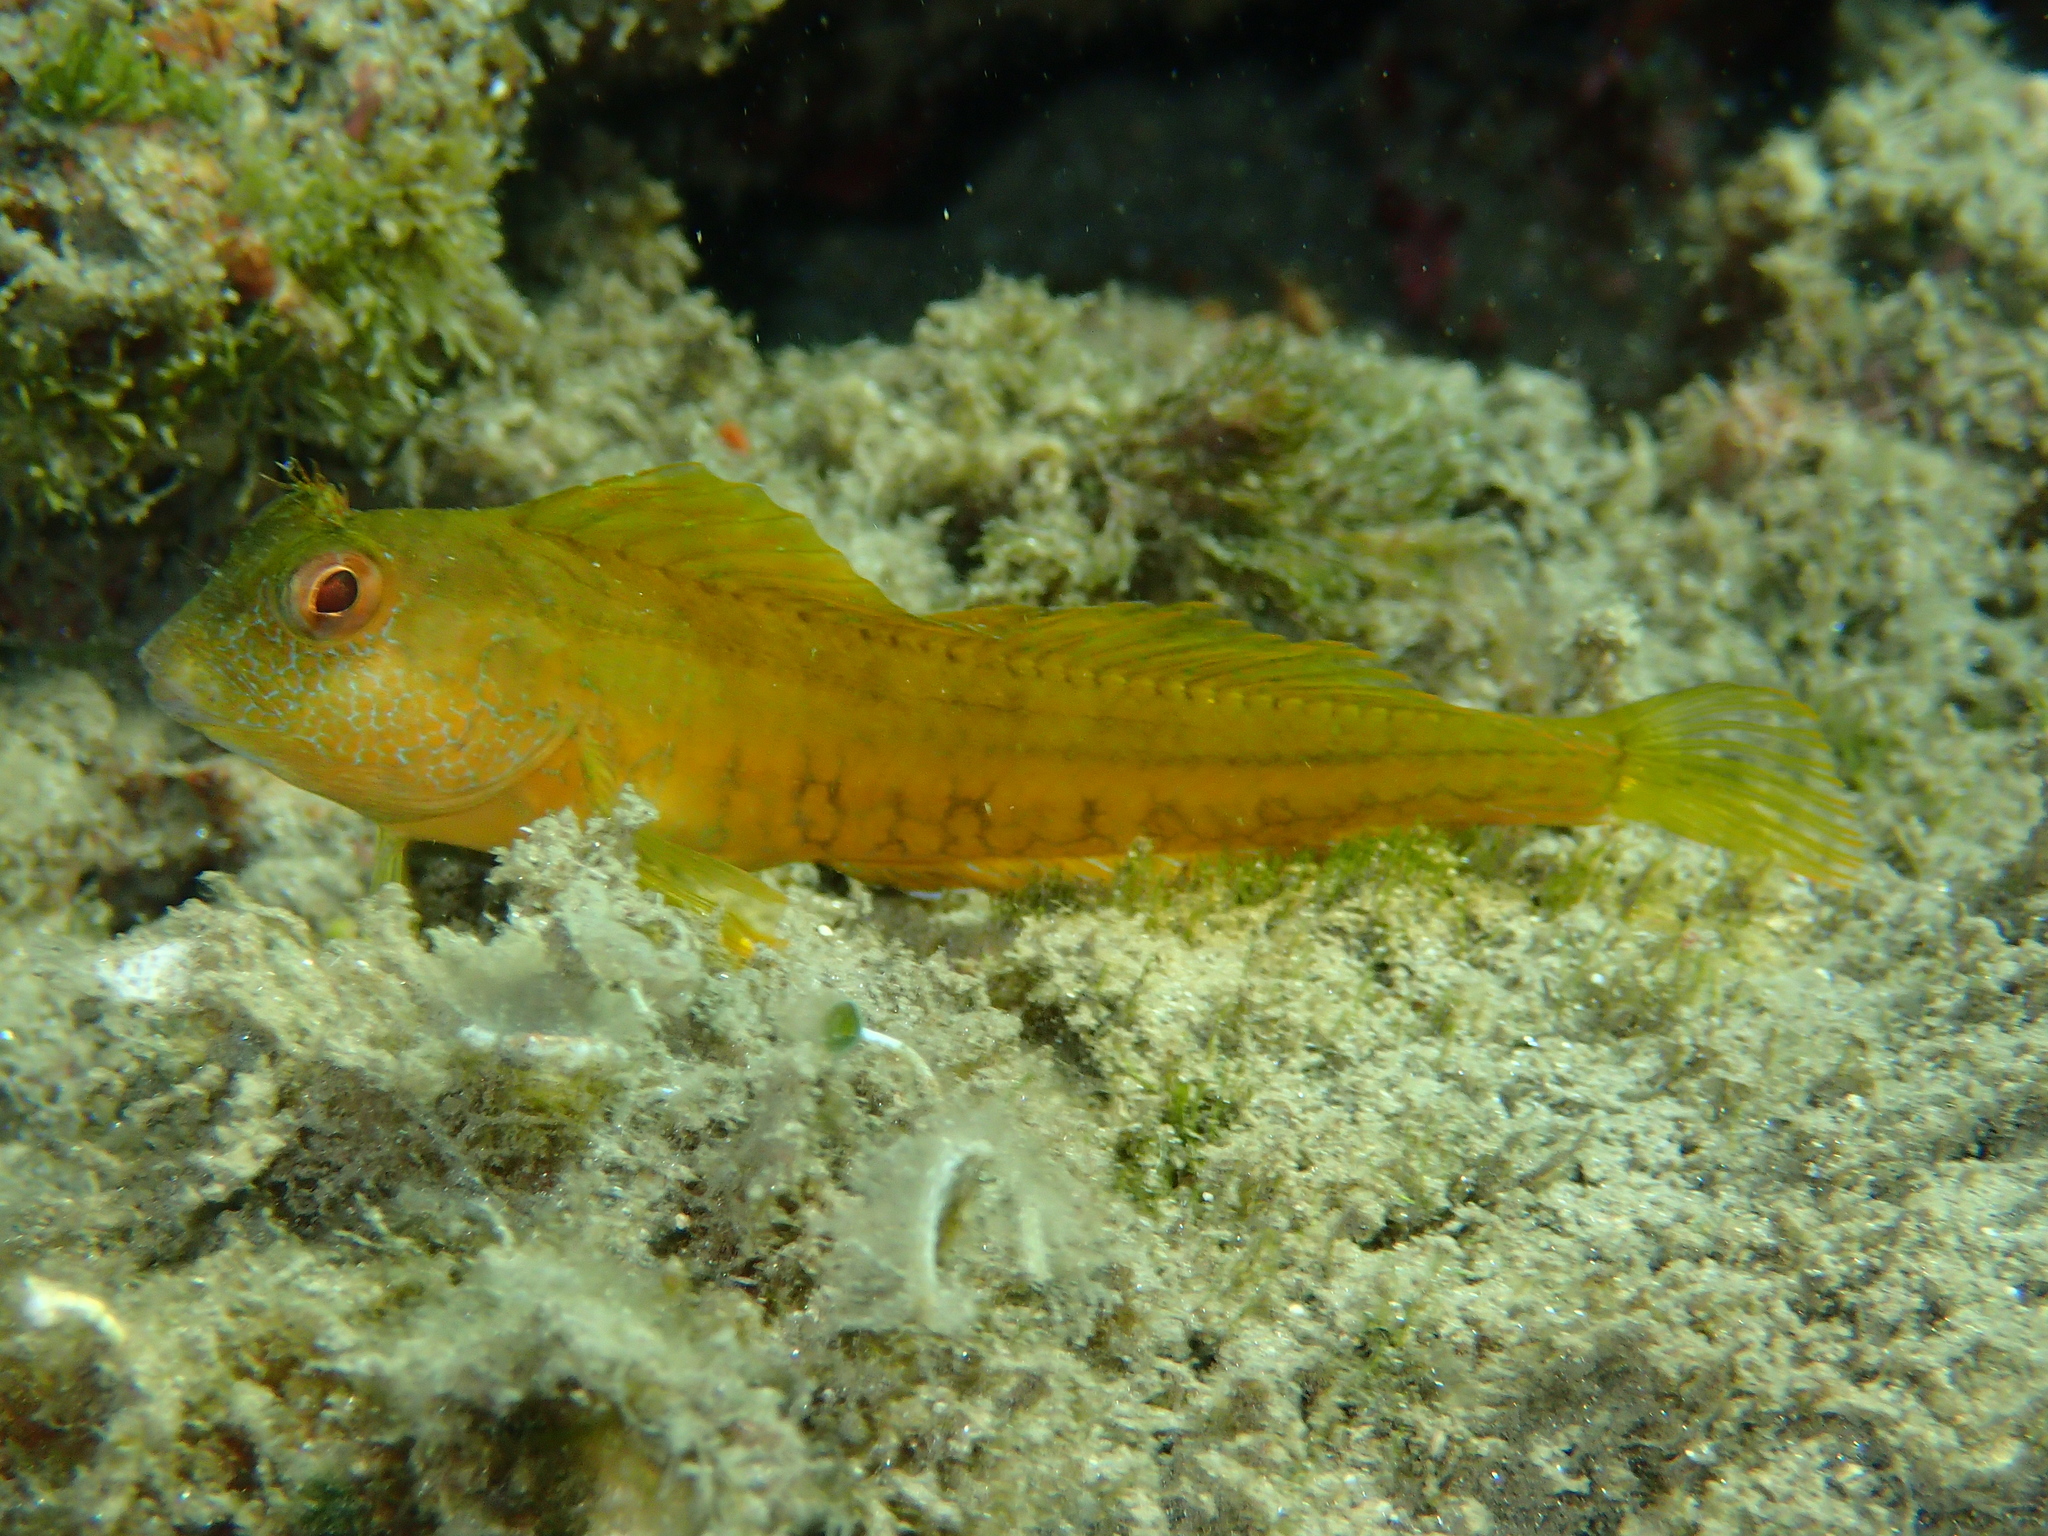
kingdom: Animalia
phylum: Chordata
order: Perciformes
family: Blenniidae
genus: Parablennius
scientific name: Parablennius pilicornis
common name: Ringneck blenny
